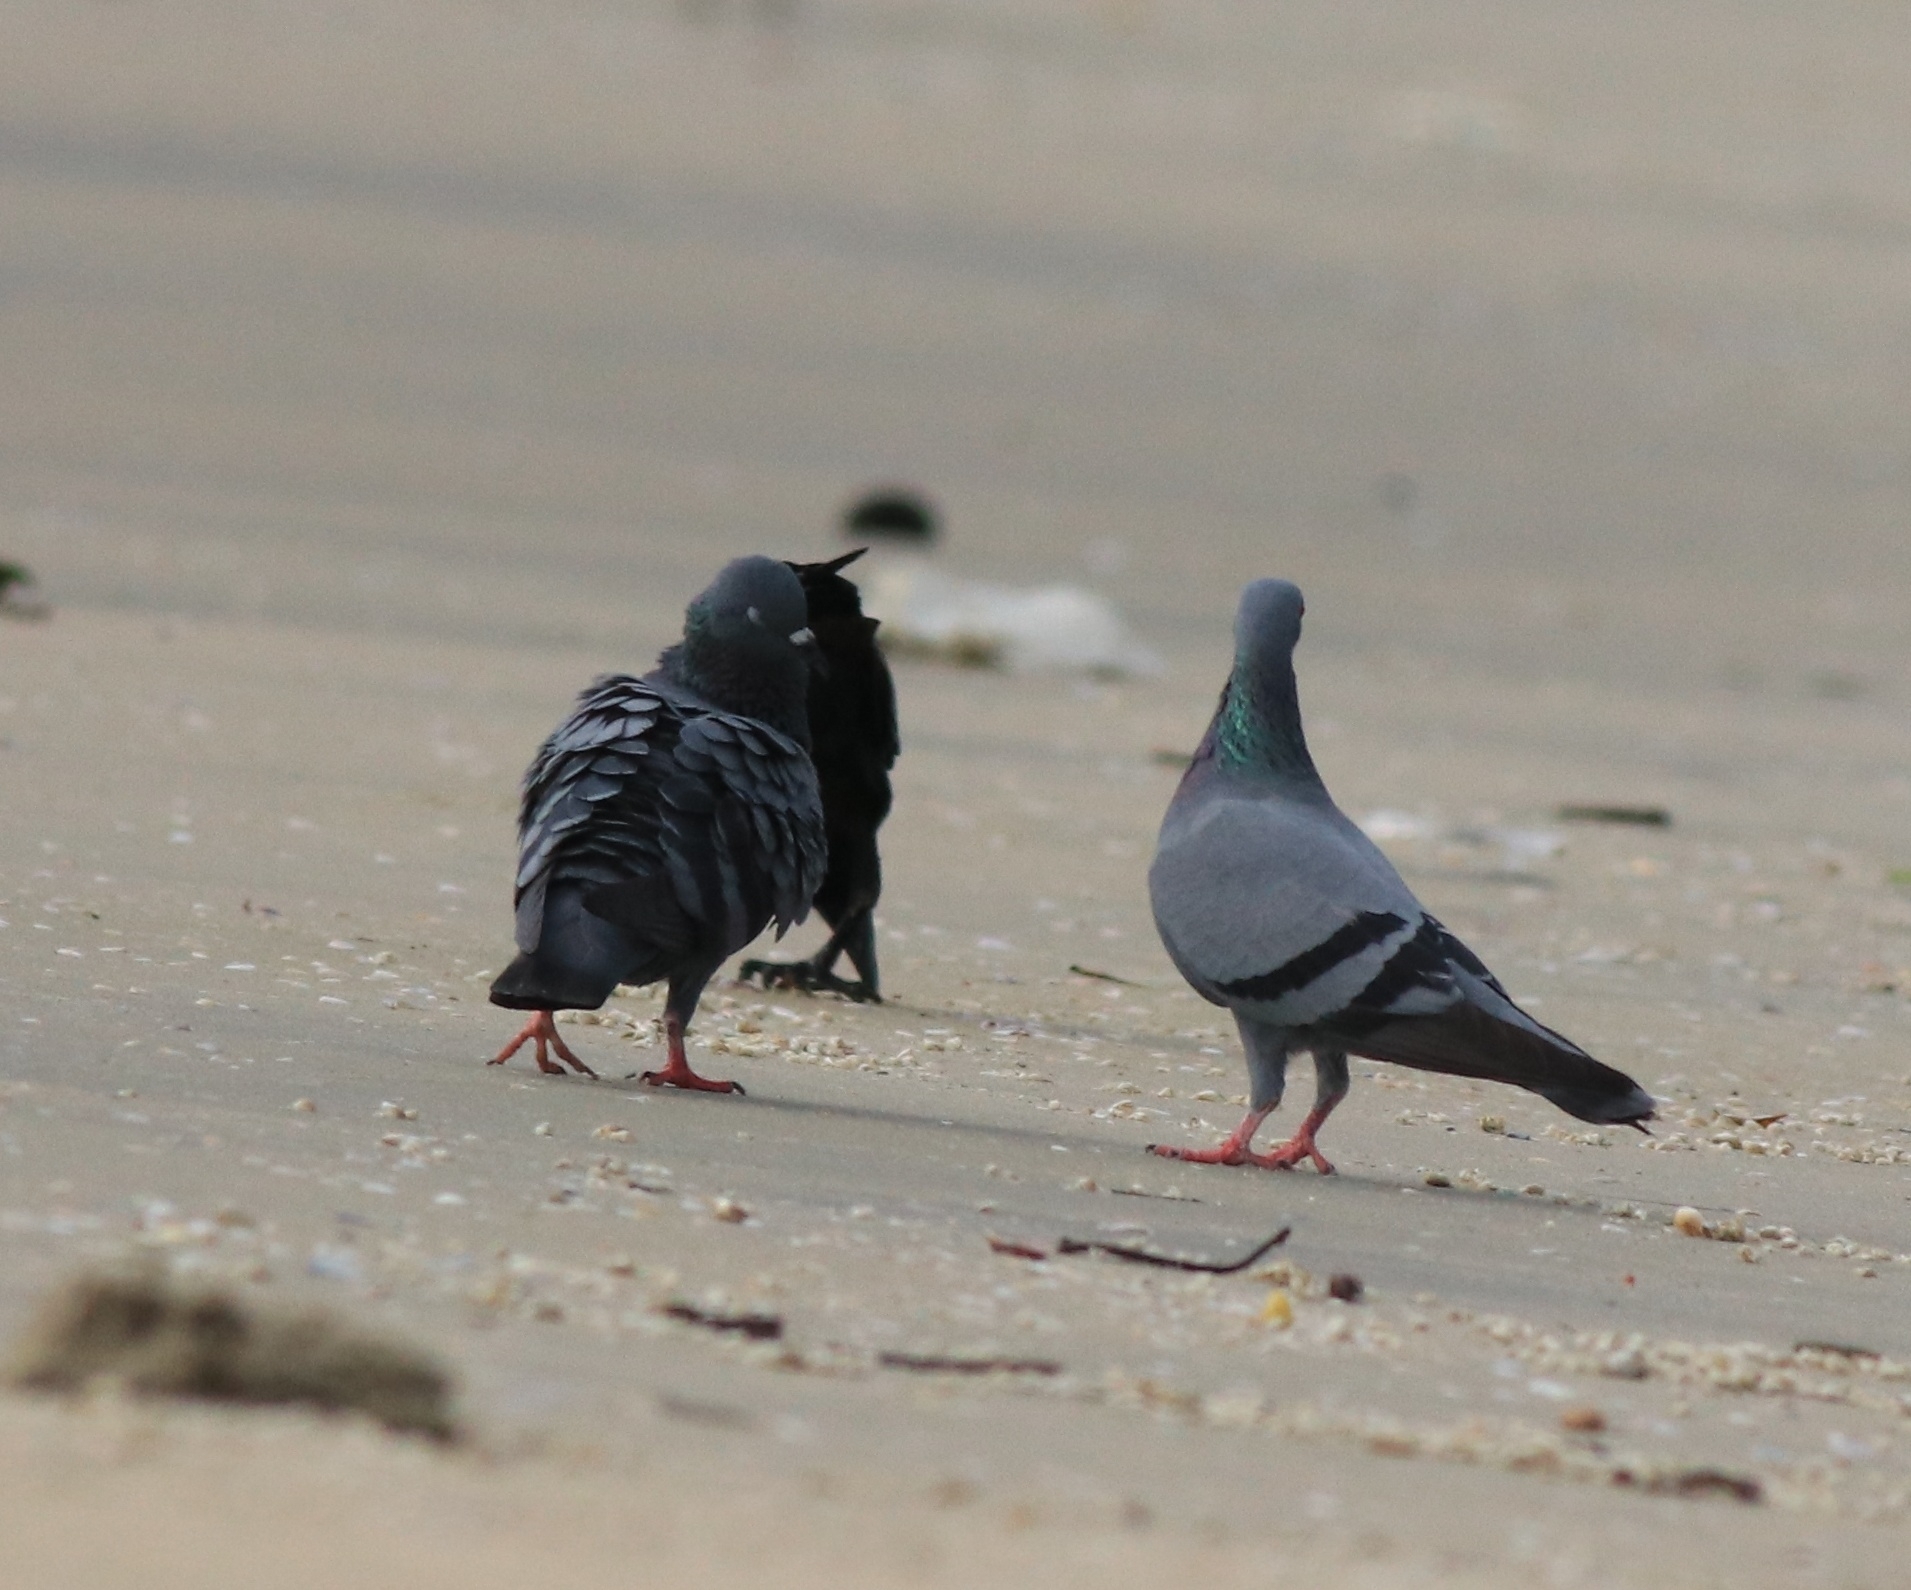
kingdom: Animalia
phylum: Chordata
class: Aves
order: Columbiformes
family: Columbidae
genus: Columba
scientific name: Columba livia
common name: Rock pigeon
